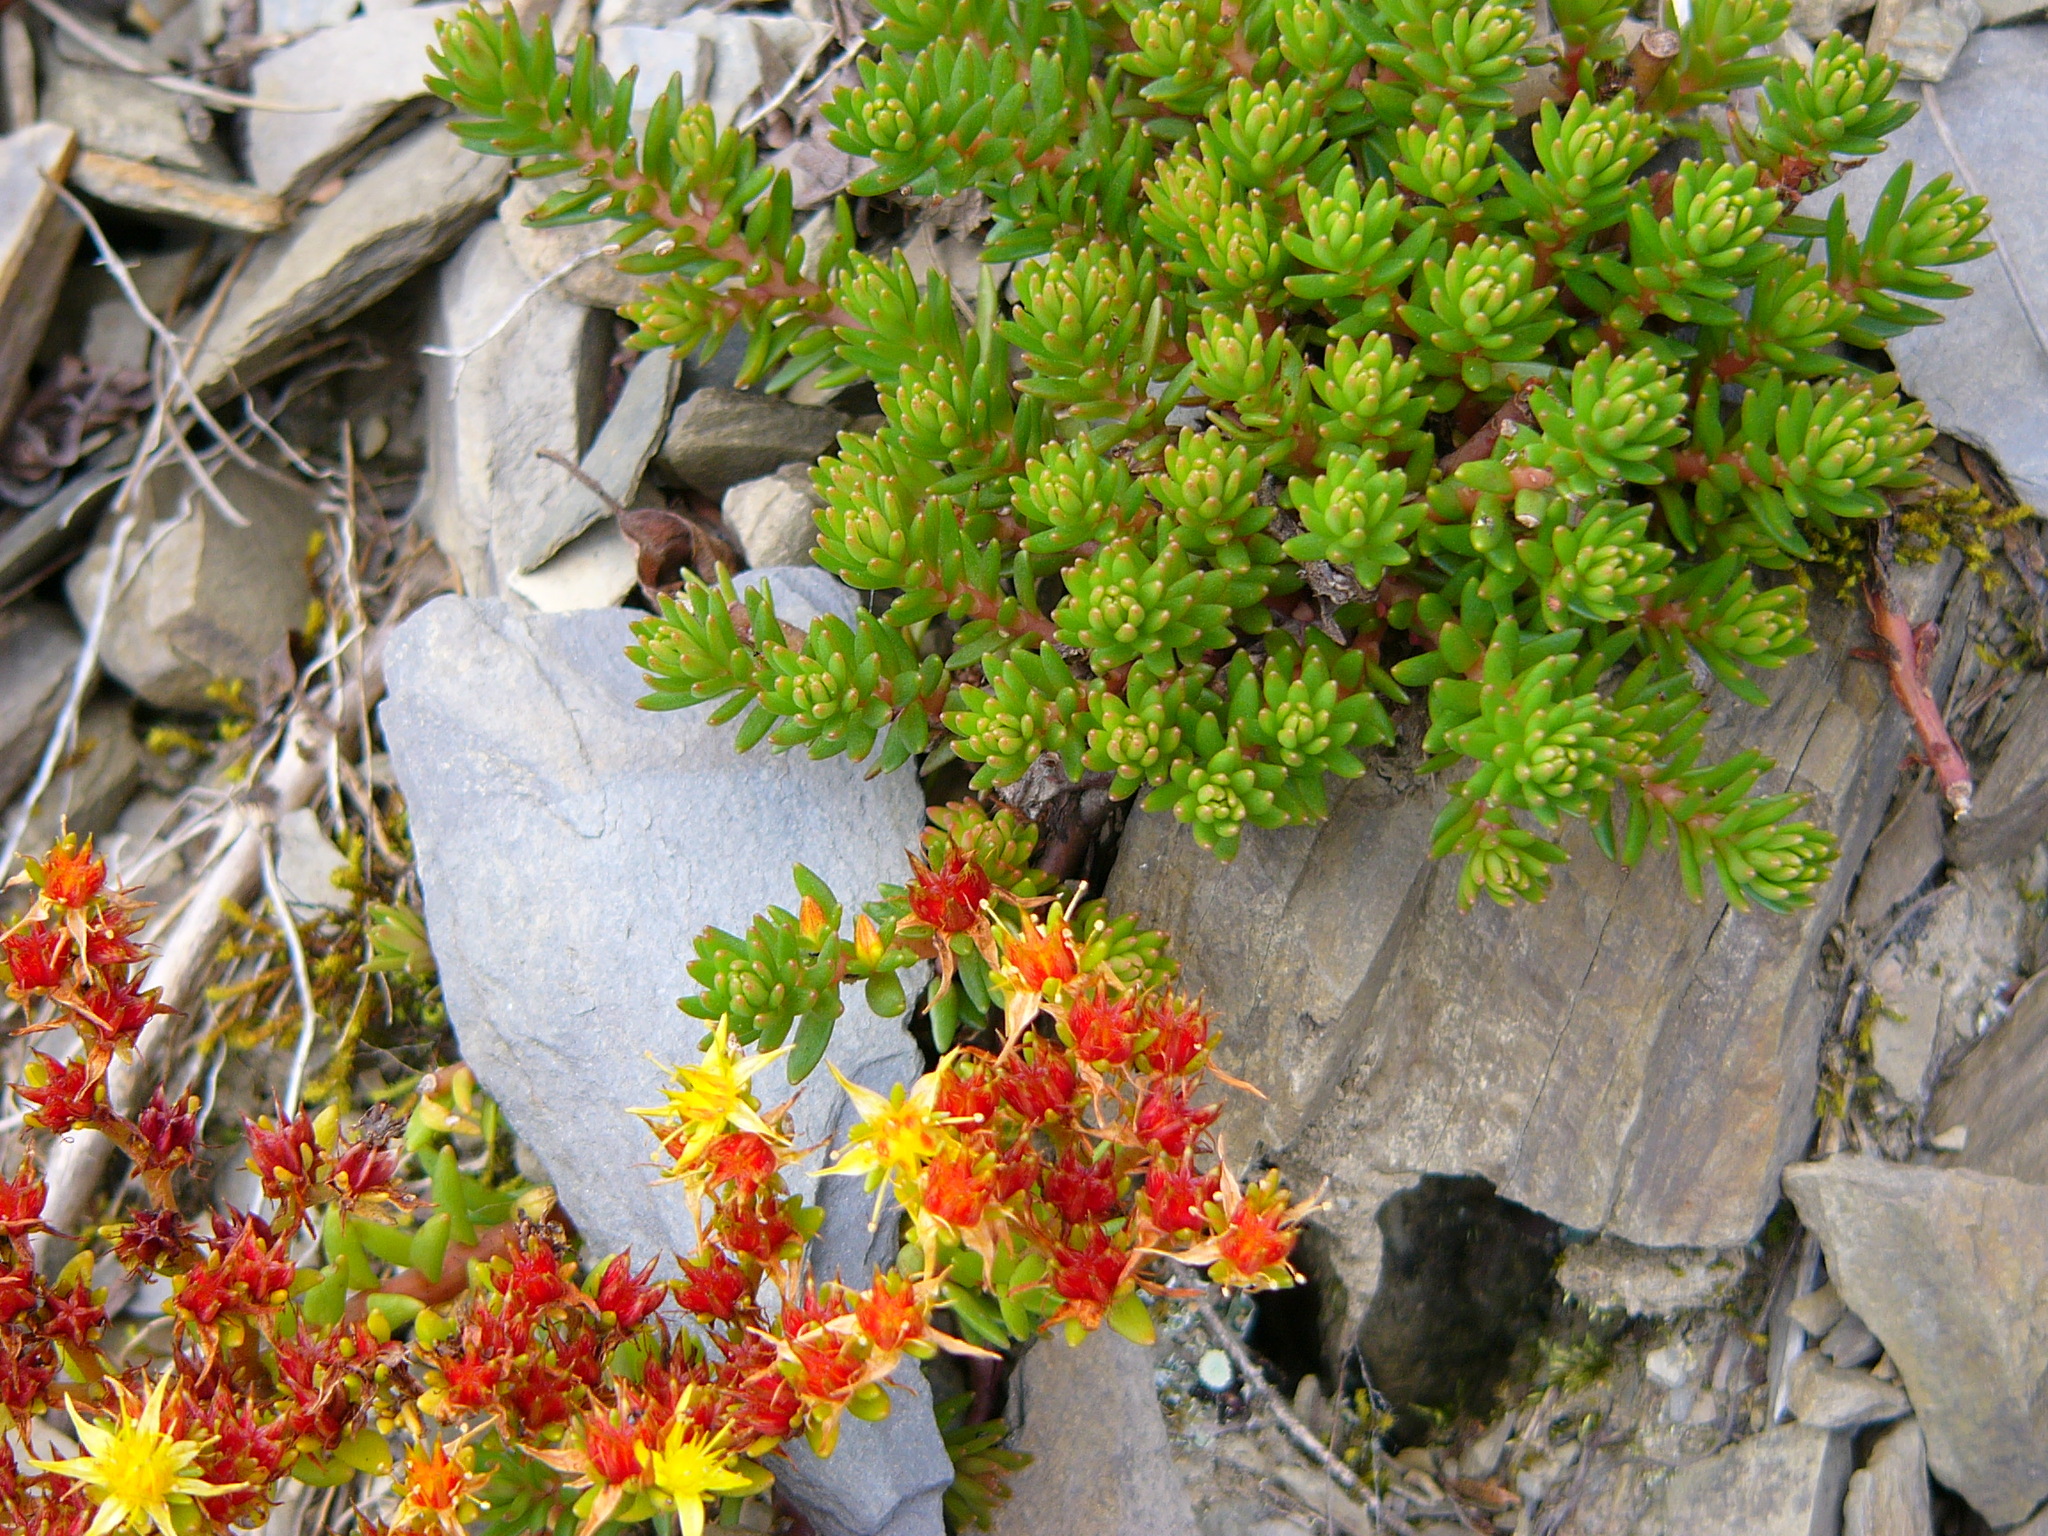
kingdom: Plantae
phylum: Tracheophyta
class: Magnoliopsida
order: Saxifragales
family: Crassulaceae
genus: Sedum
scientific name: Sedum morrisonense
